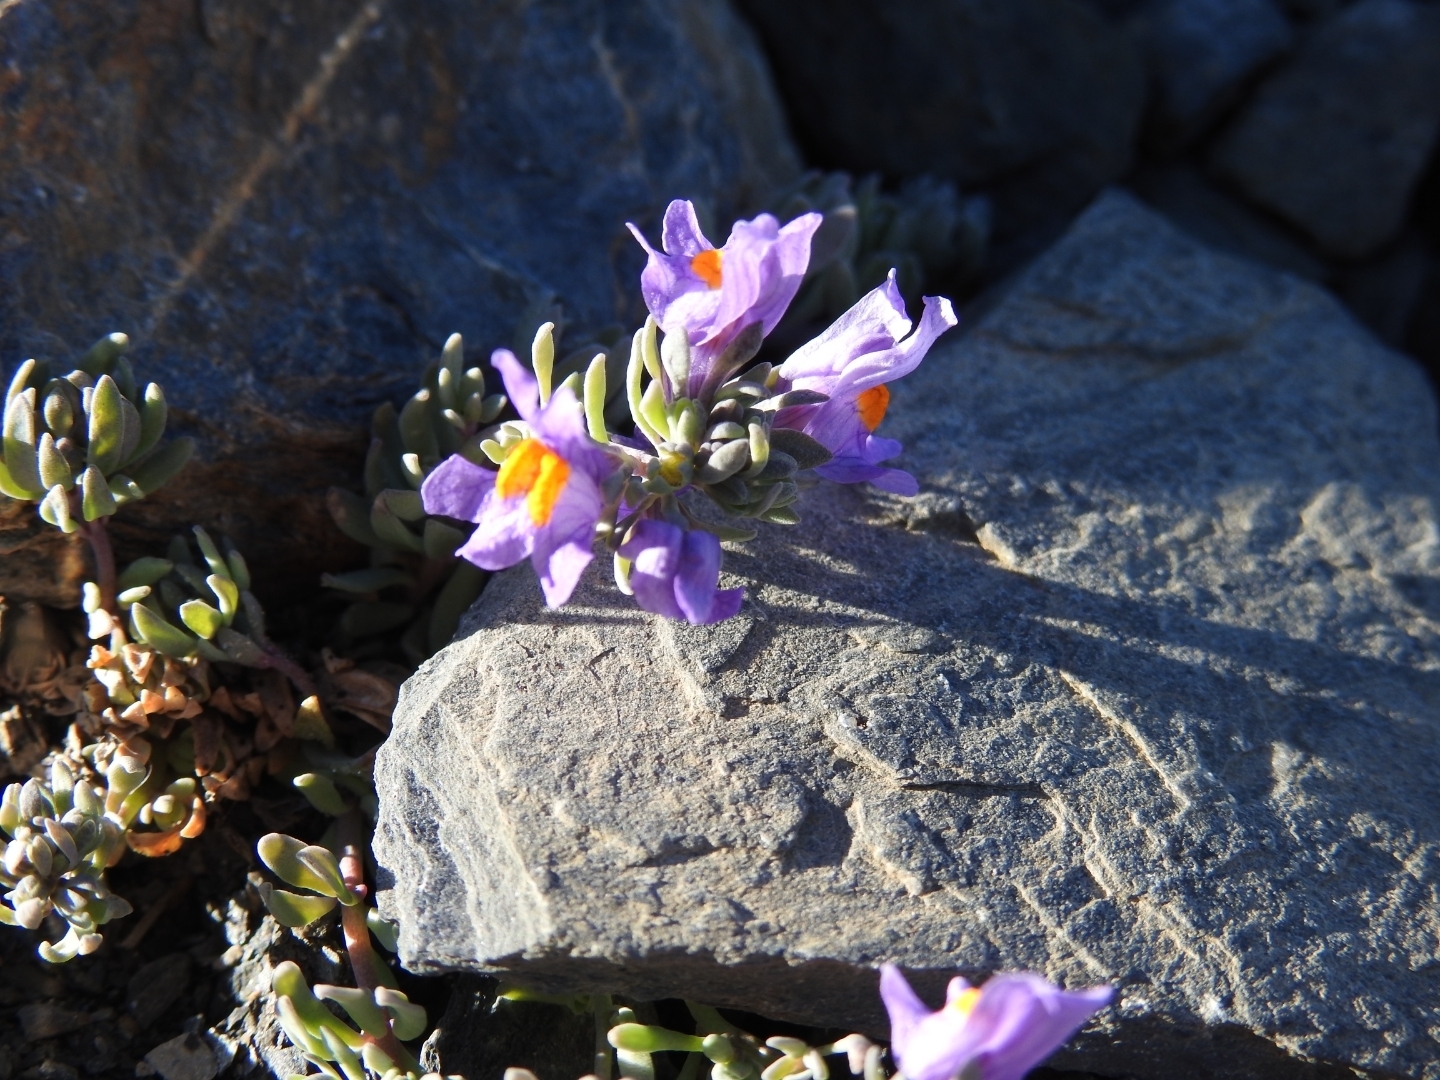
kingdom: Plantae
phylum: Tracheophyta
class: Magnoliopsida
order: Lamiales
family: Plantaginaceae
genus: Linaria
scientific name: Linaria alpina
